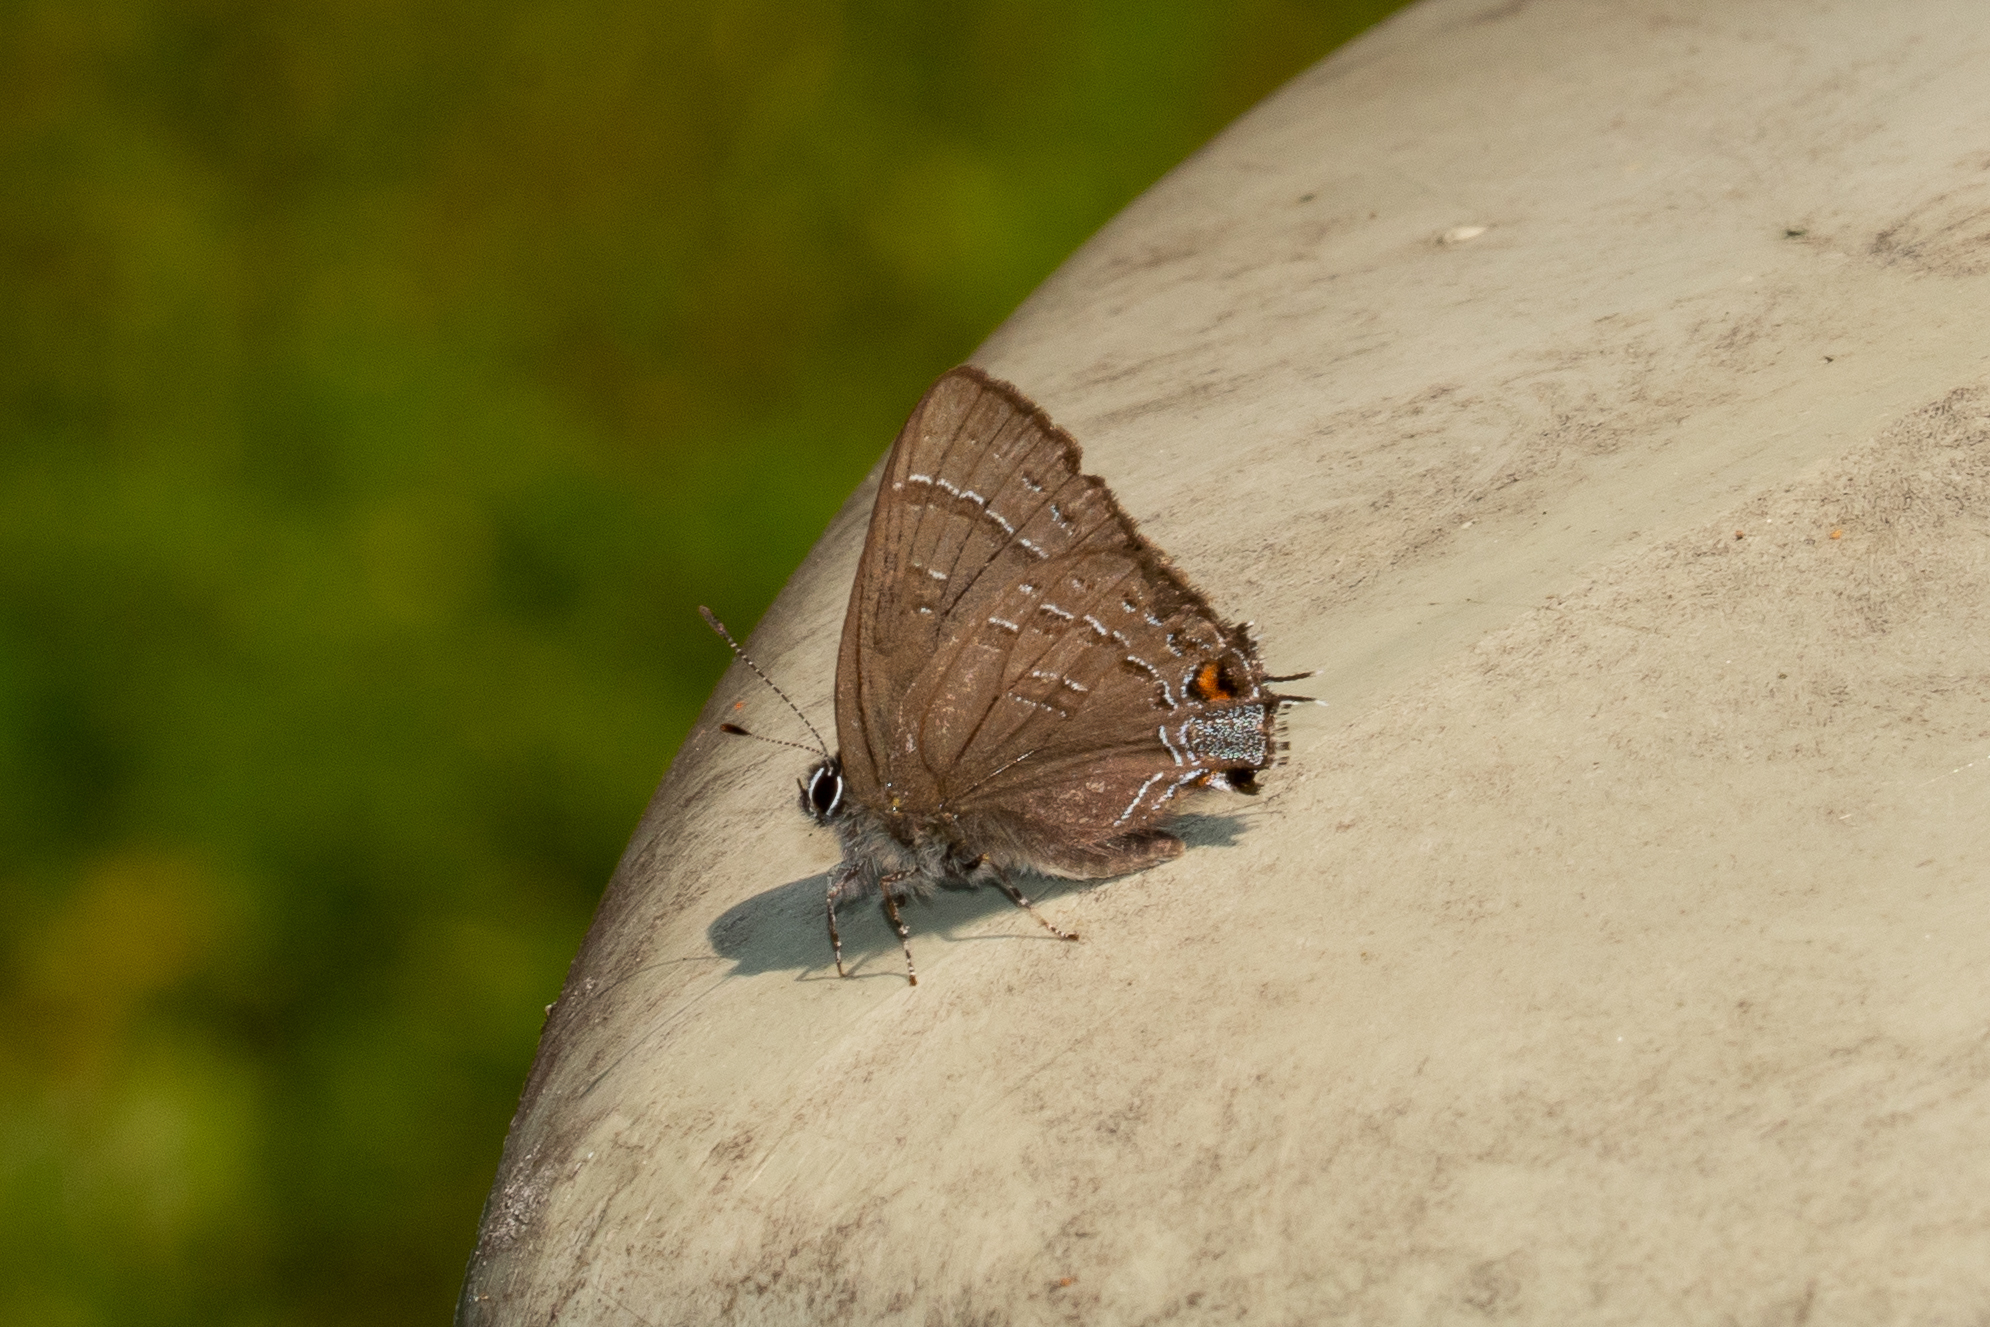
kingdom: Animalia
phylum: Arthropoda
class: Insecta
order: Lepidoptera
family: Lycaenidae
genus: Satyrium
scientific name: Satyrium calanus
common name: Banded hairstreak
